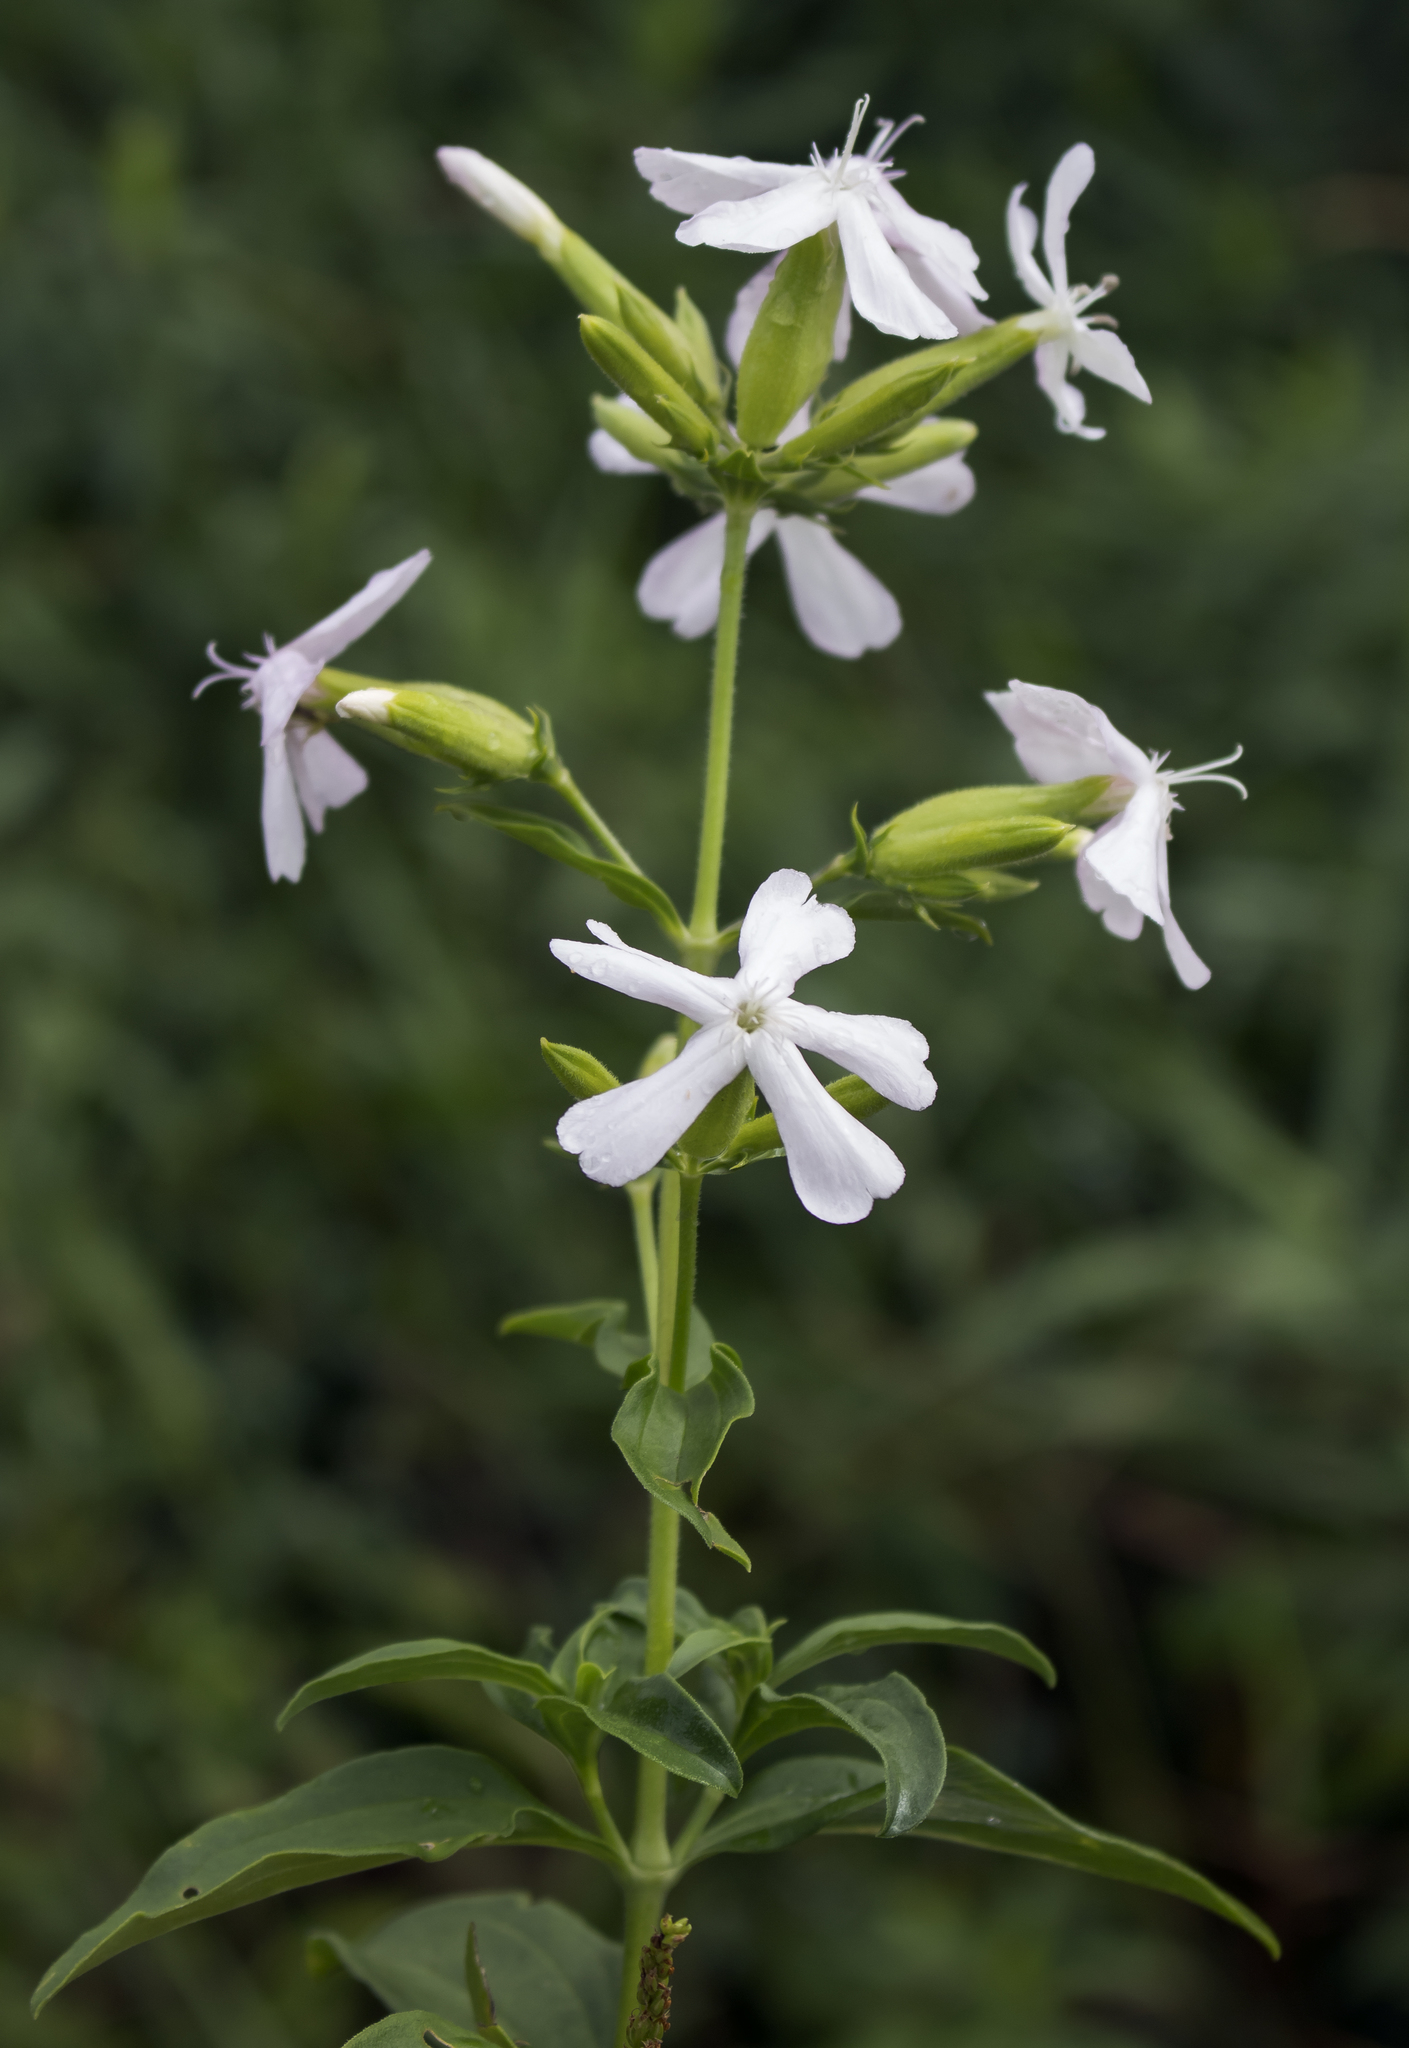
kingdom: Plantae
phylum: Tracheophyta
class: Magnoliopsida
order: Caryophyllales
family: Caryophyllaceae
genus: Saponaria
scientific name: Saponaria officinalis
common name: Soapwort
